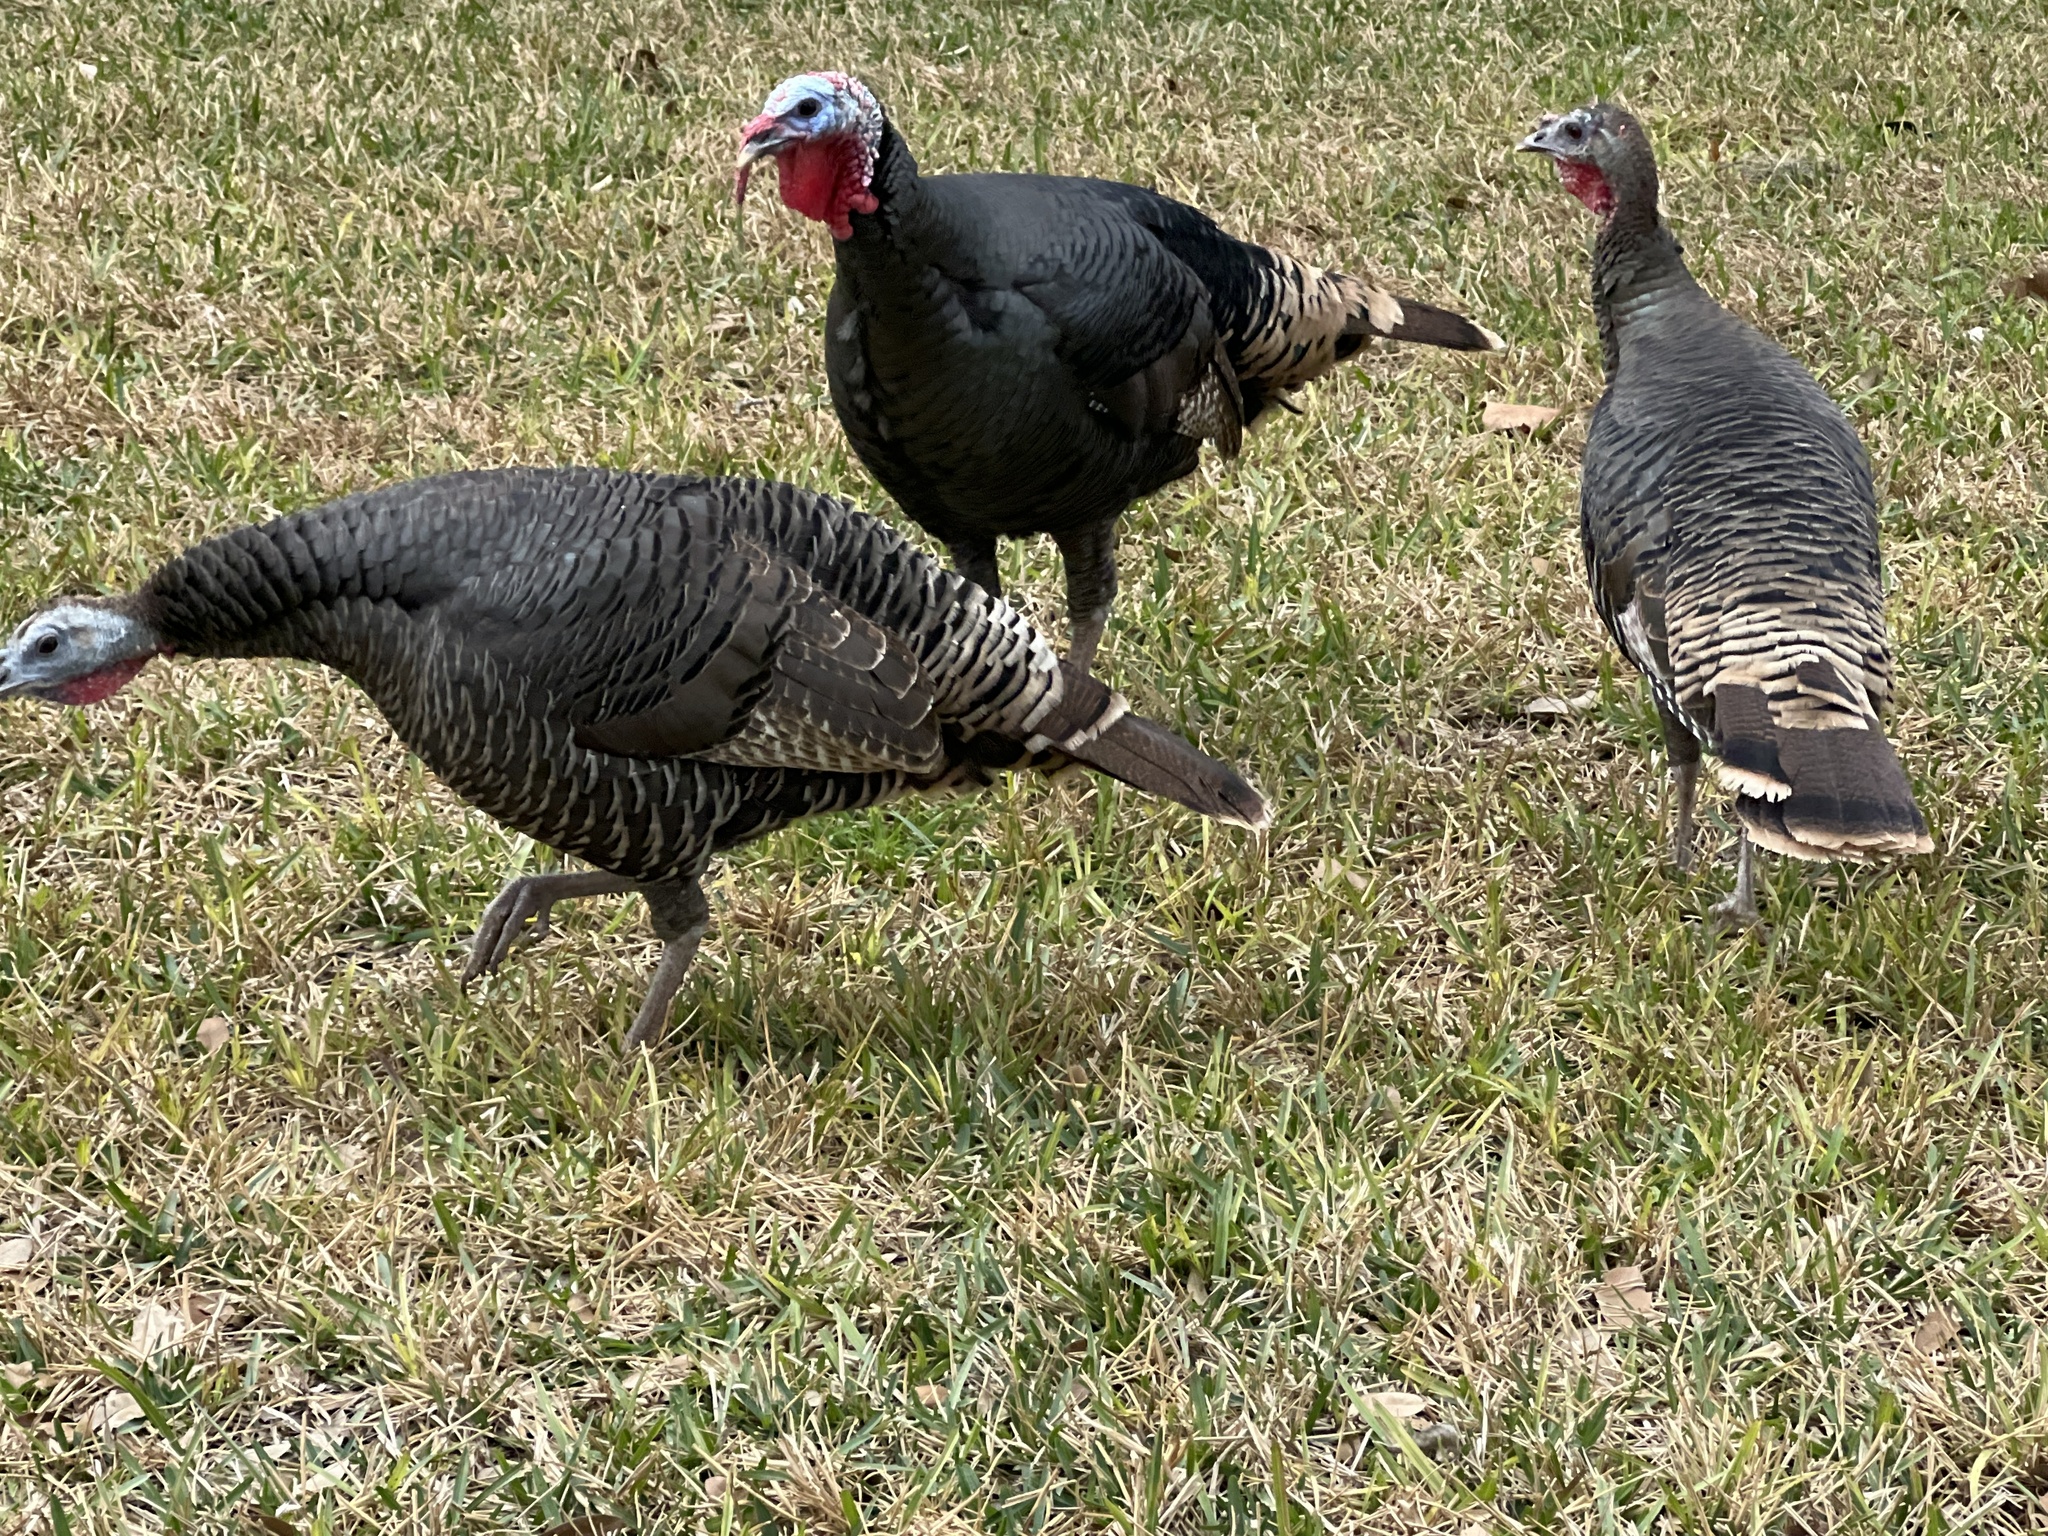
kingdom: Animalia
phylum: Chordata
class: Aves
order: Galliformes
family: Phasianidae
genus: Meleagris
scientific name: Meleagris gallopavo
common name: Wild turkey
